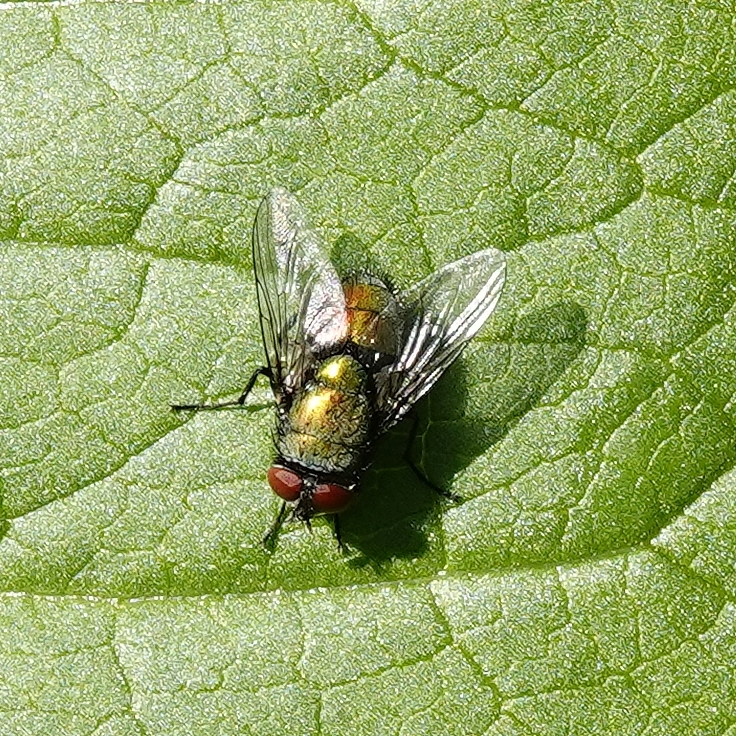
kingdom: Animalia
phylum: Arthropoda
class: Insecta
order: Diptera
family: Calliphoridae
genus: Lucilia
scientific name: Lucilia
